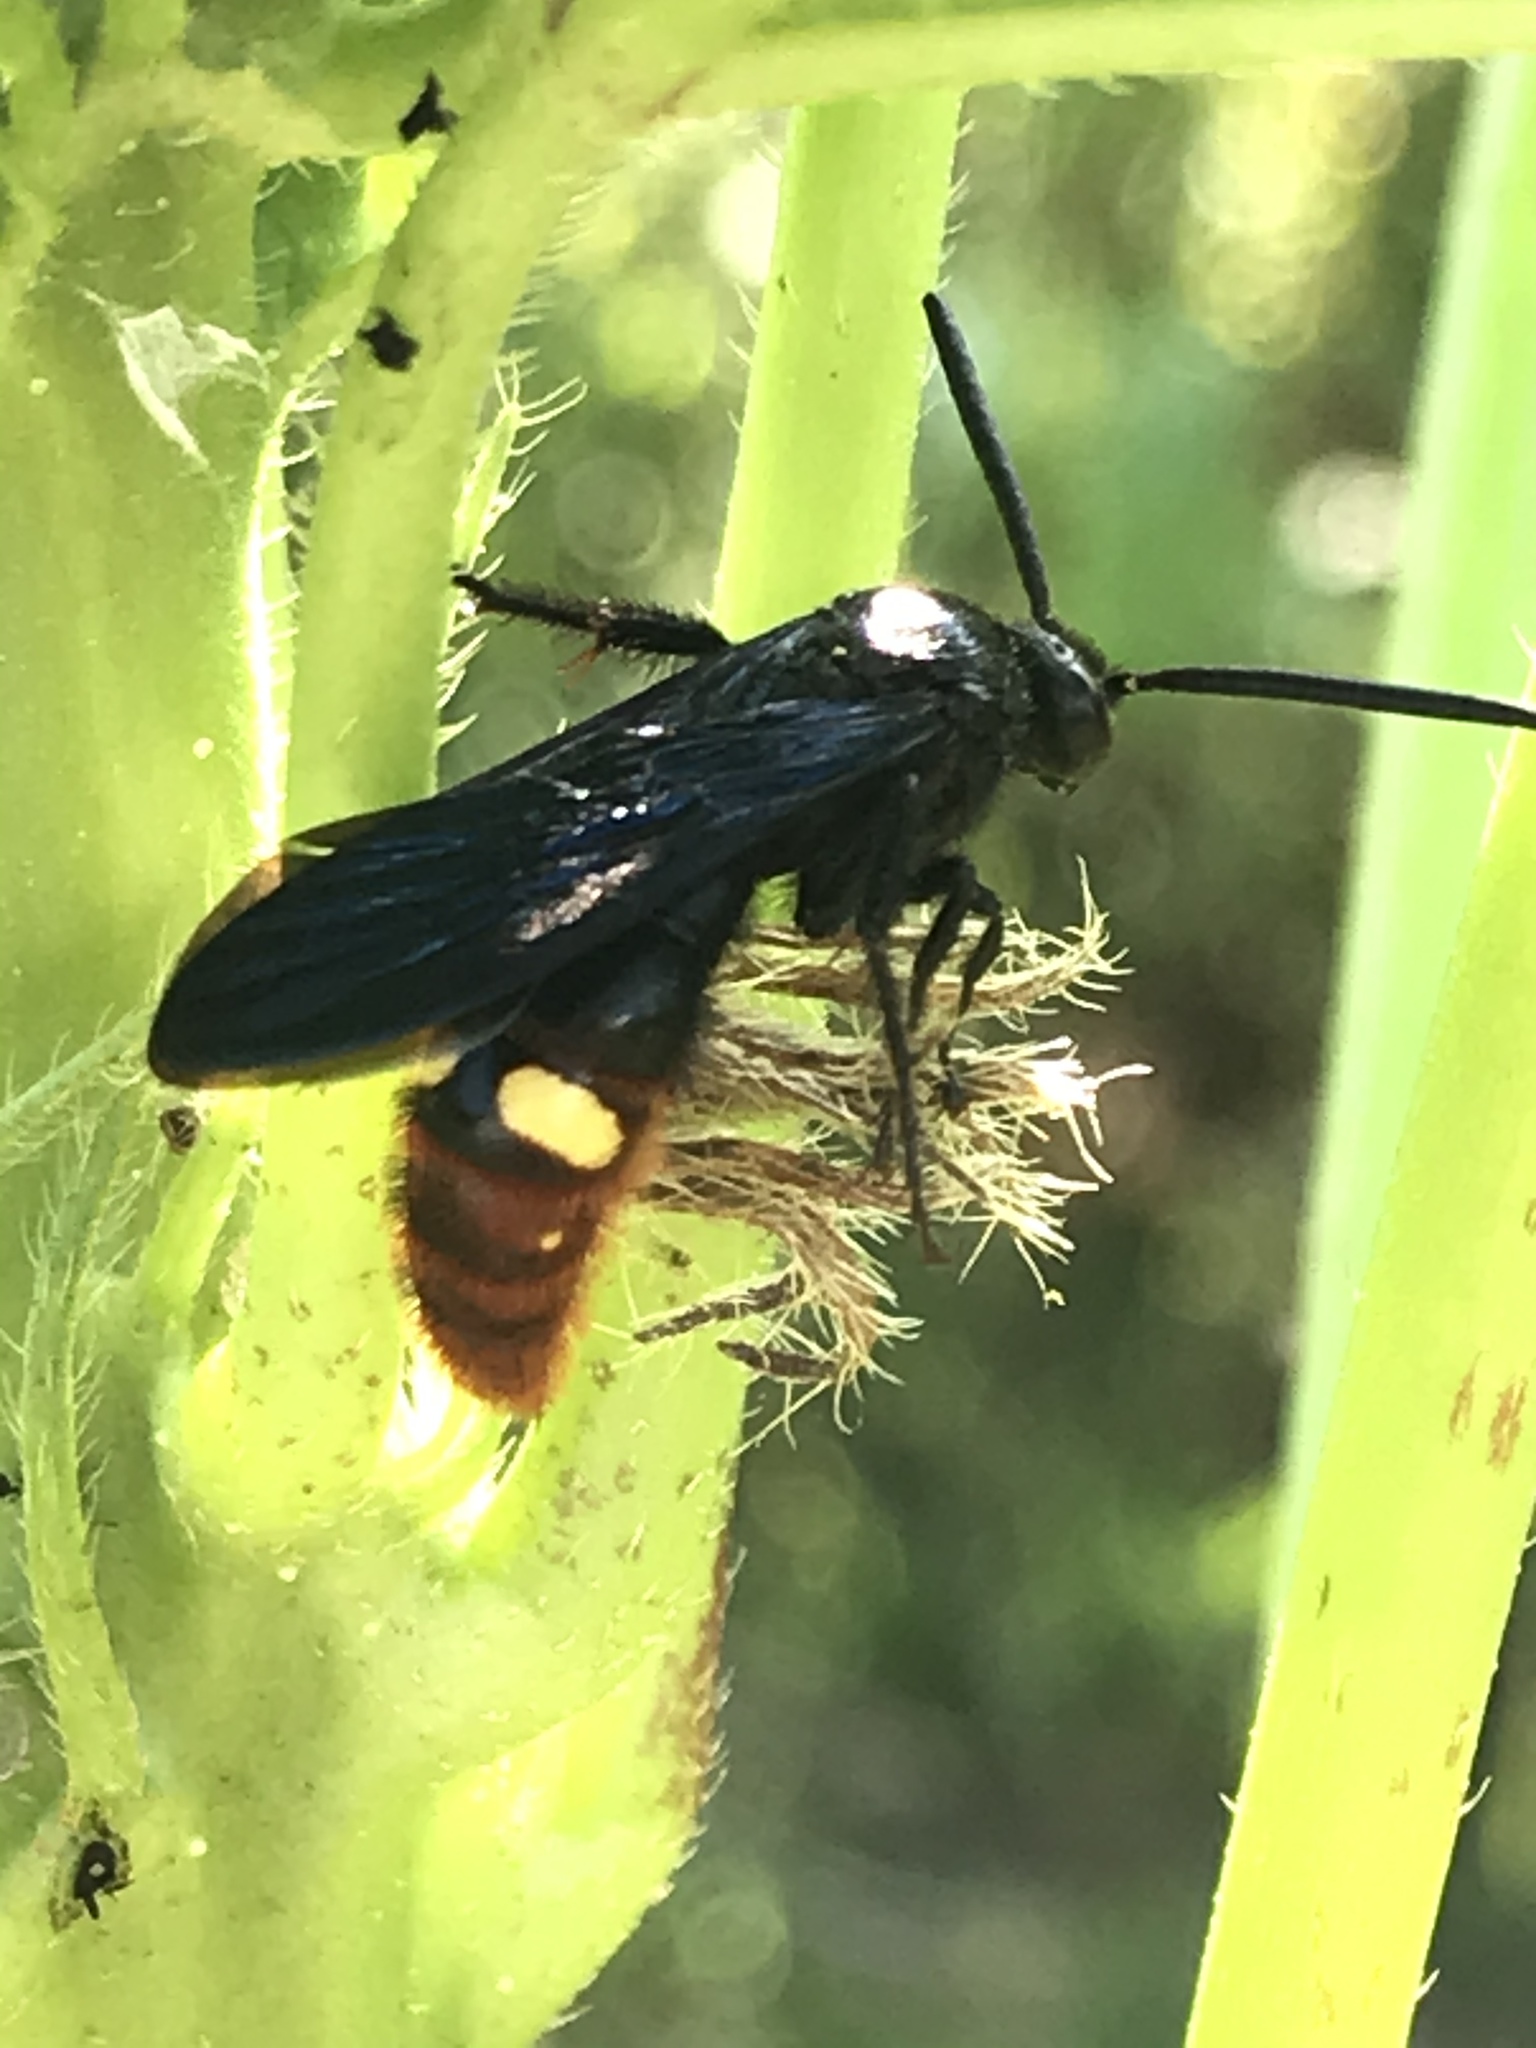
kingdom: Animalia
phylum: Arthropoda
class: Insecta
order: Hymenoptera
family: Scoliidae
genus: Scolia
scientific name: Scolia dubia
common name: Blue-winged scoliid wasp
